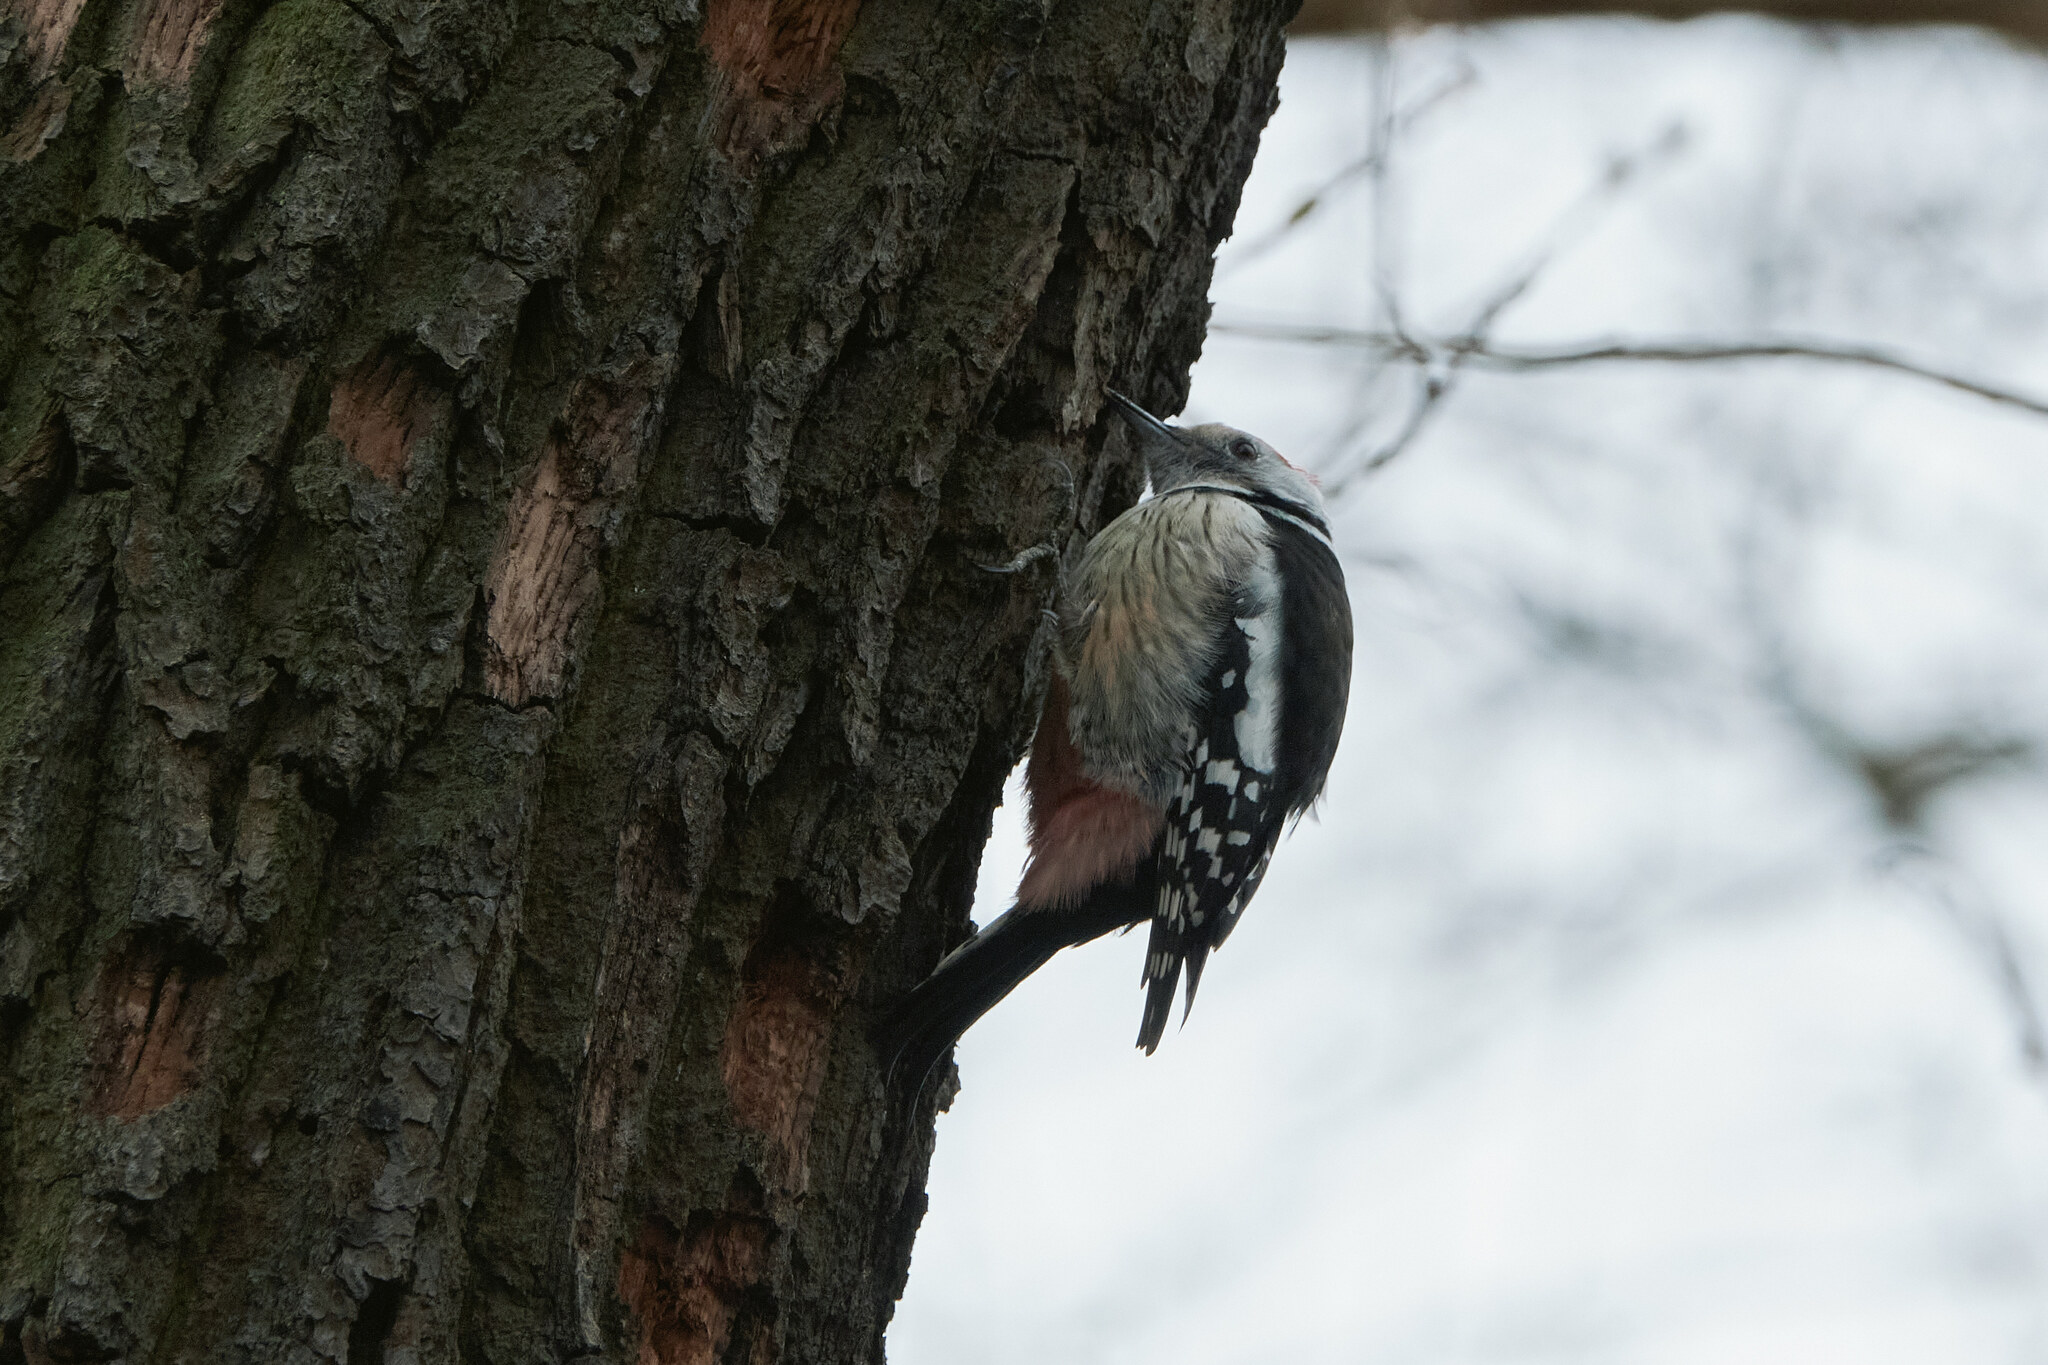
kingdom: Animalia
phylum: Chordata
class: Aves
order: Piciformes
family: Picidae
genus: Dendrocoptes
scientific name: Dendrocoptes medius
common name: Middle spotted woodpecker
